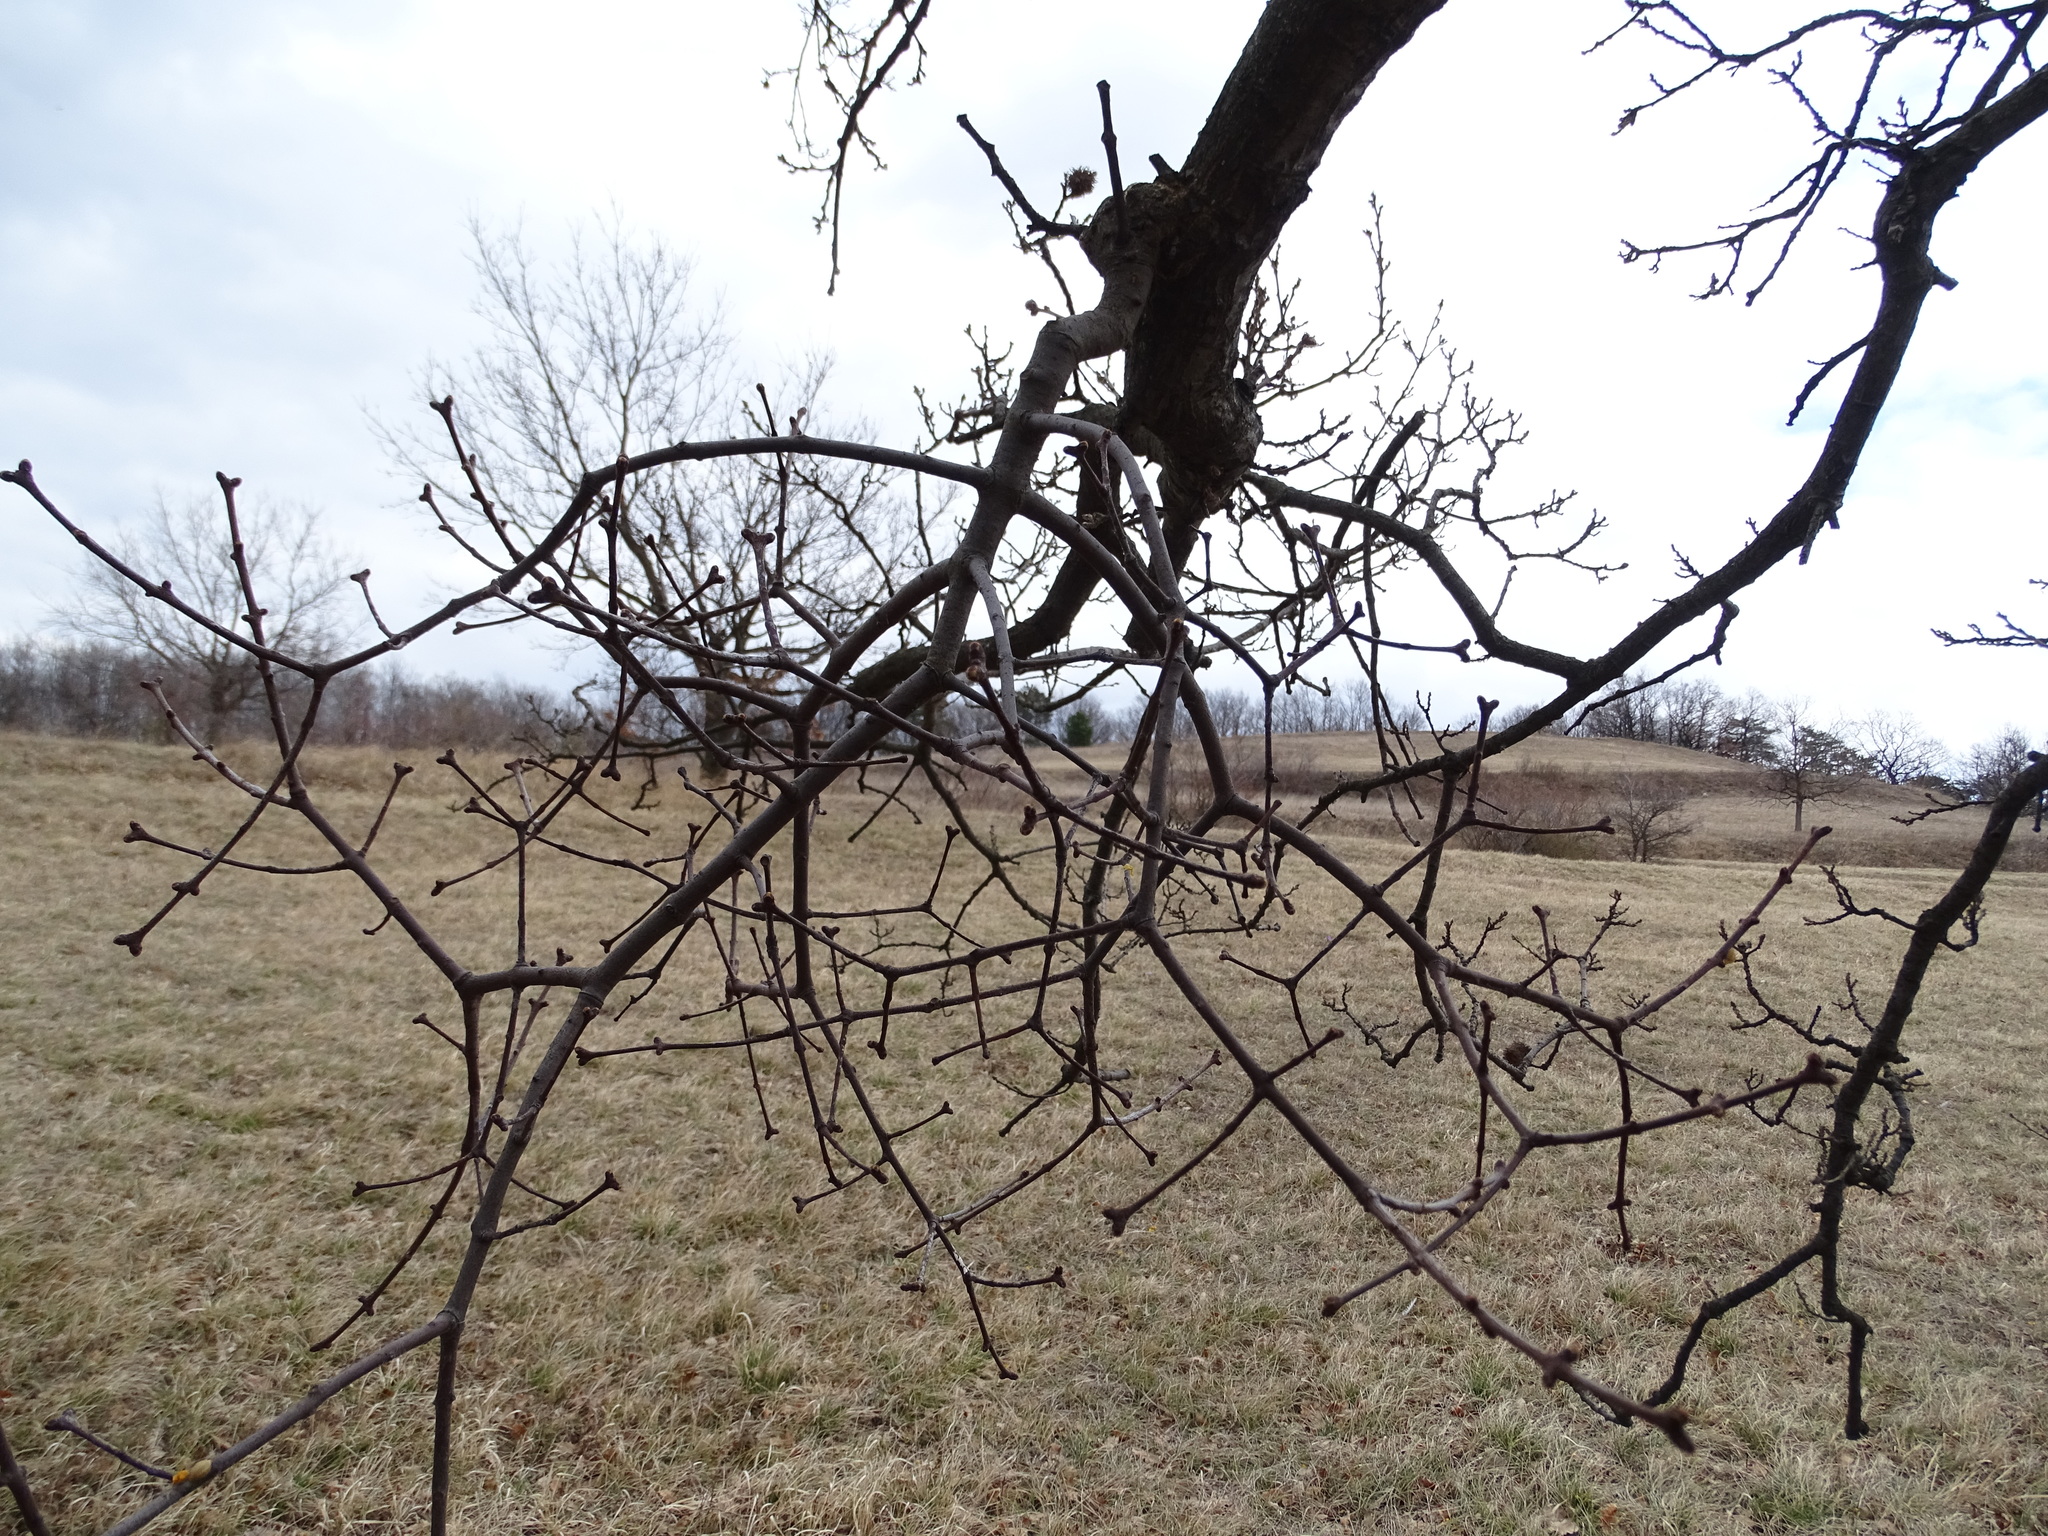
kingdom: Plantae
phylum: Tracheophyta
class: Magnoliopsida
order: Santalales
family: Loranthaceae
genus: Loranthus
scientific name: Loranthus europaeus
